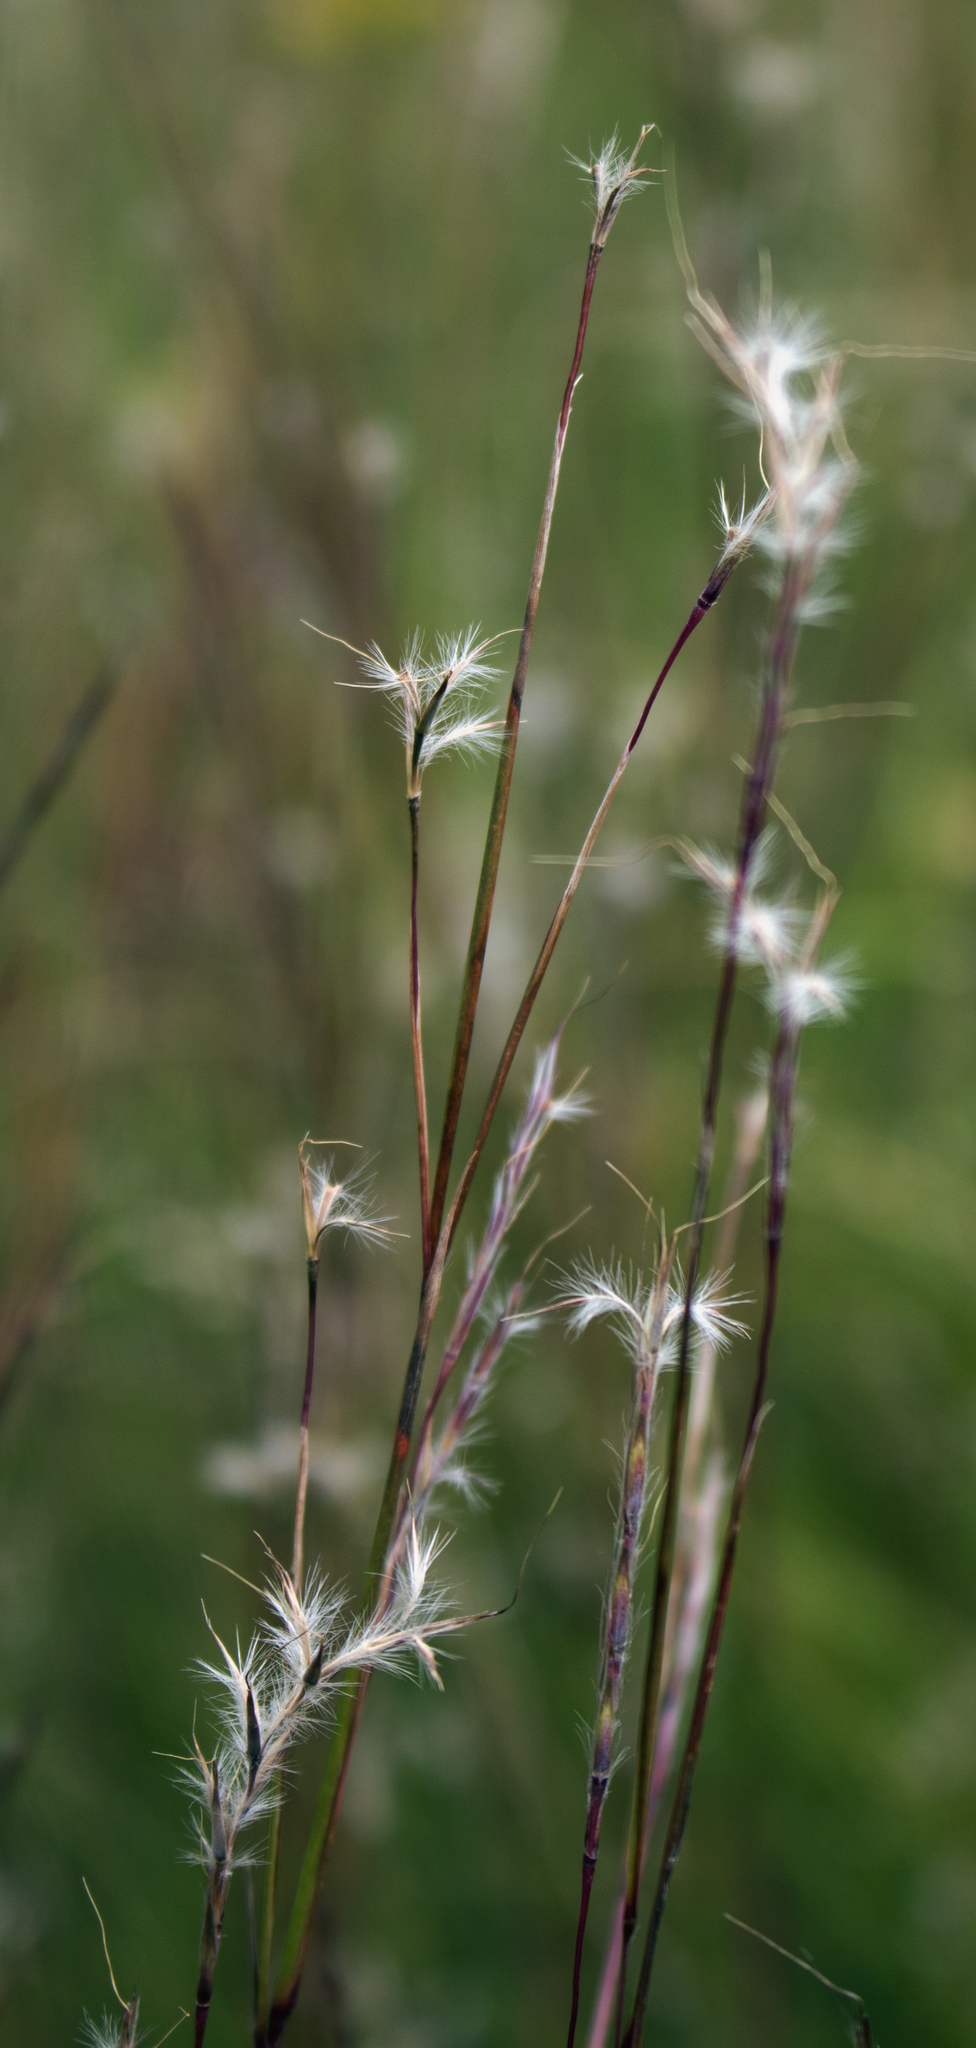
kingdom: Plantae
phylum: Tracheophyta
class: Liliopsida
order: Poales
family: Poaceae
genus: Schizachyrium
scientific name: Schizachyrium scoparium
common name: Little bluestem
